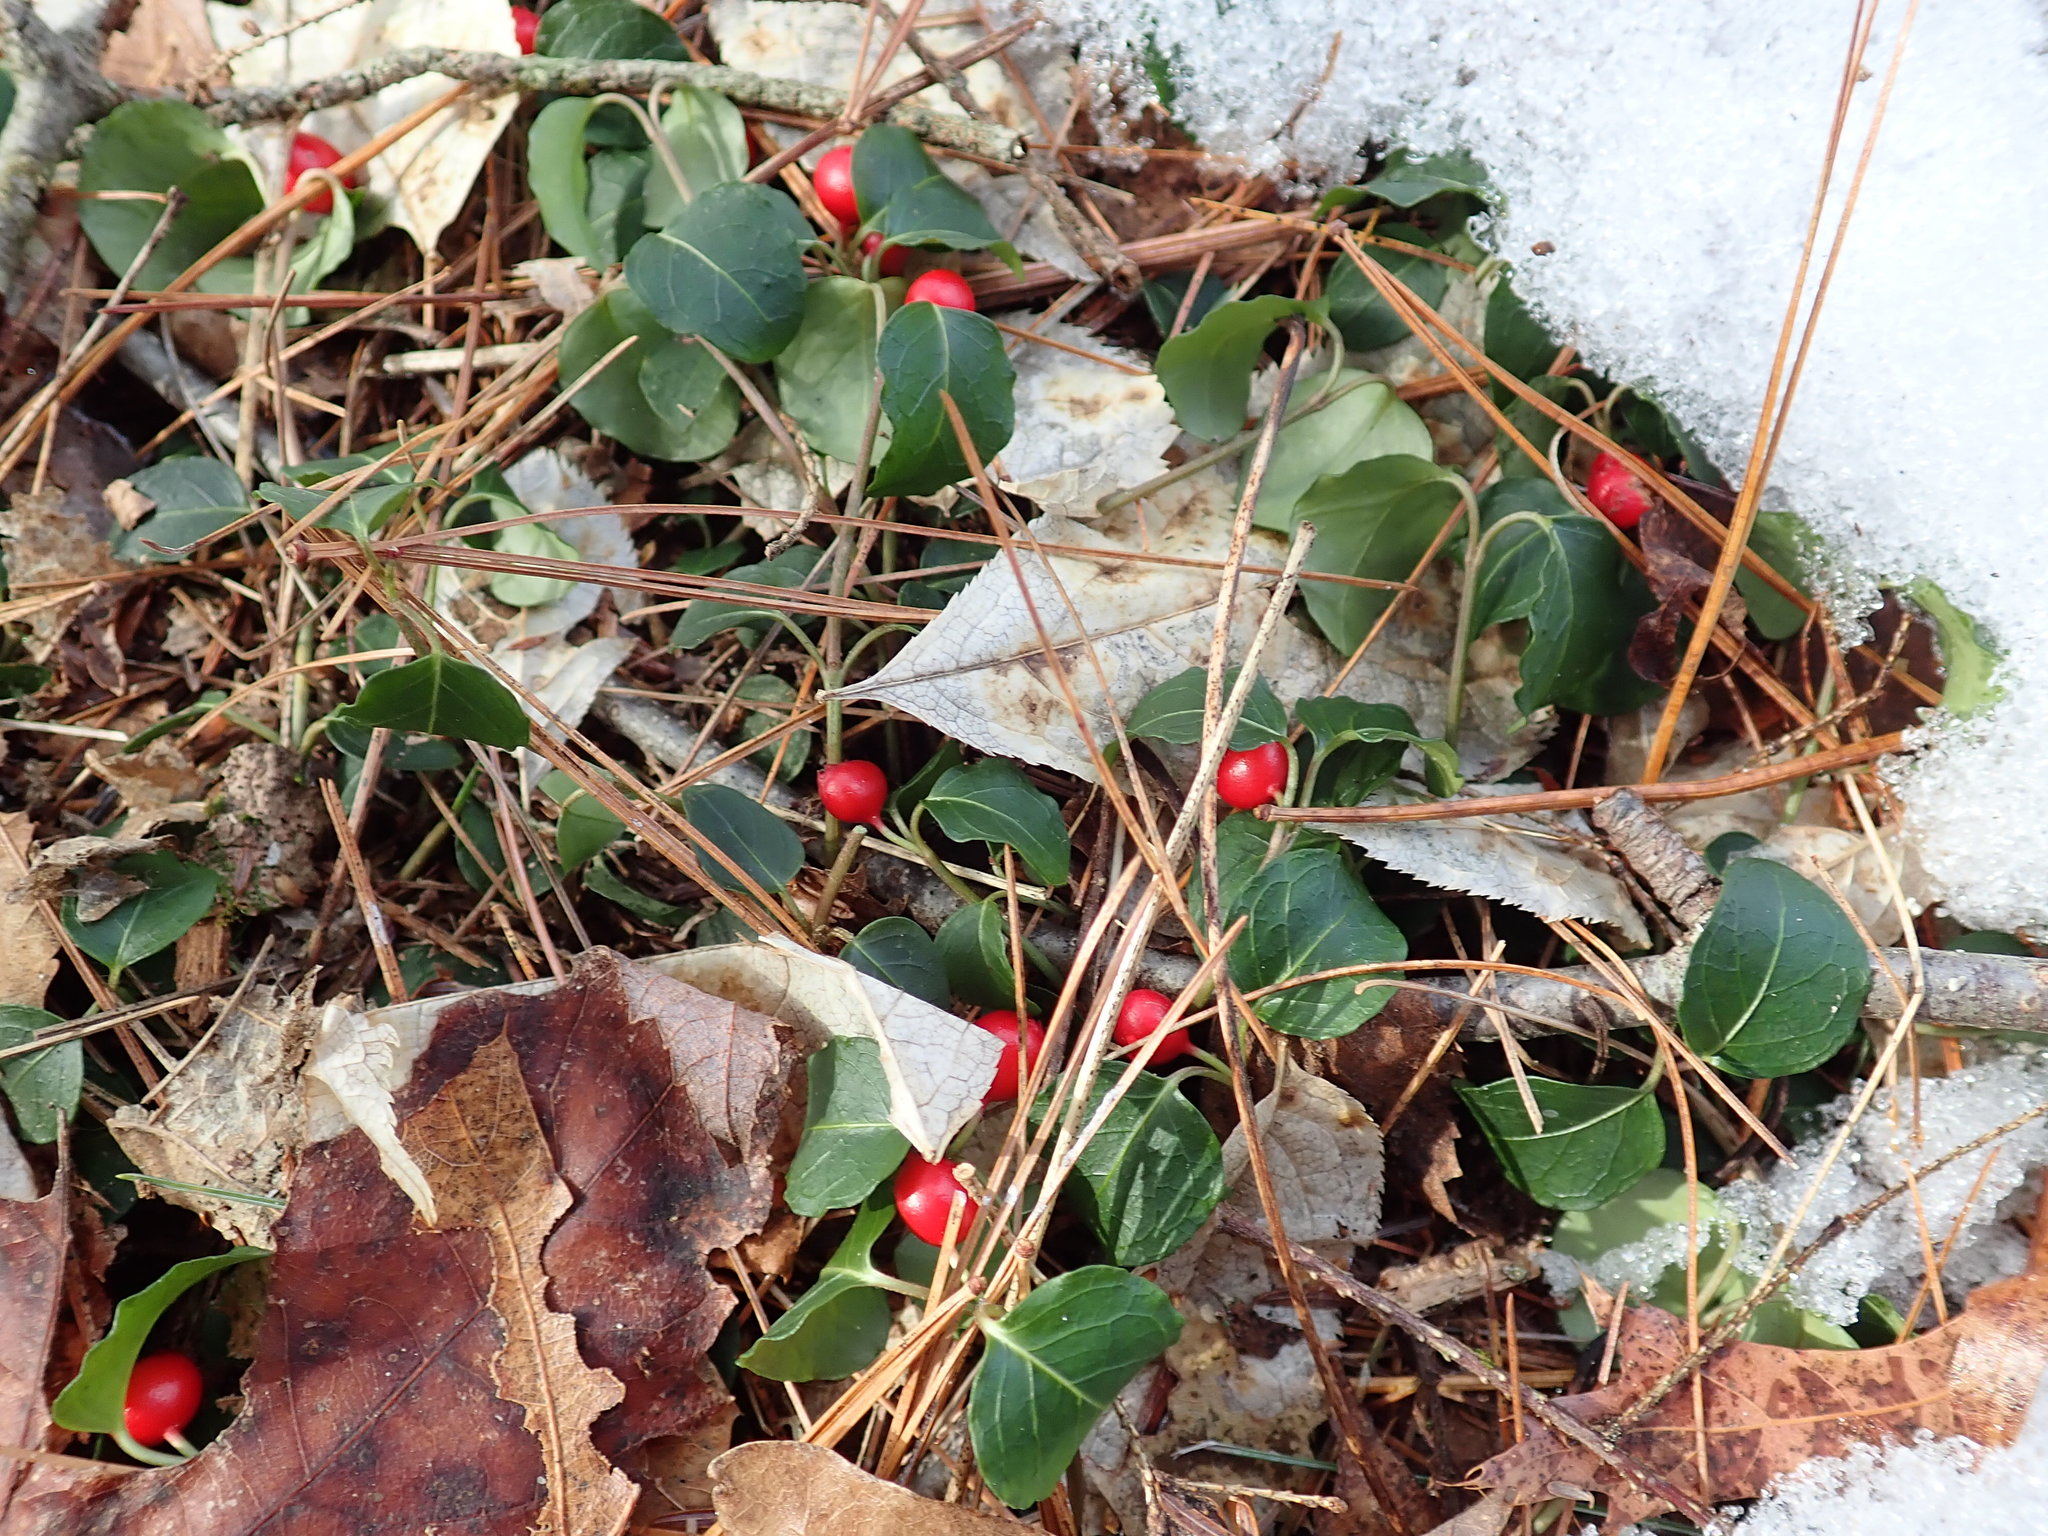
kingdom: Plantae
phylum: Tracheophyta
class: Magnoliopsida
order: Gentianales
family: Rubiaceae
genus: Mitchella
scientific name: Mitchella repens
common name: Partridge-berry
